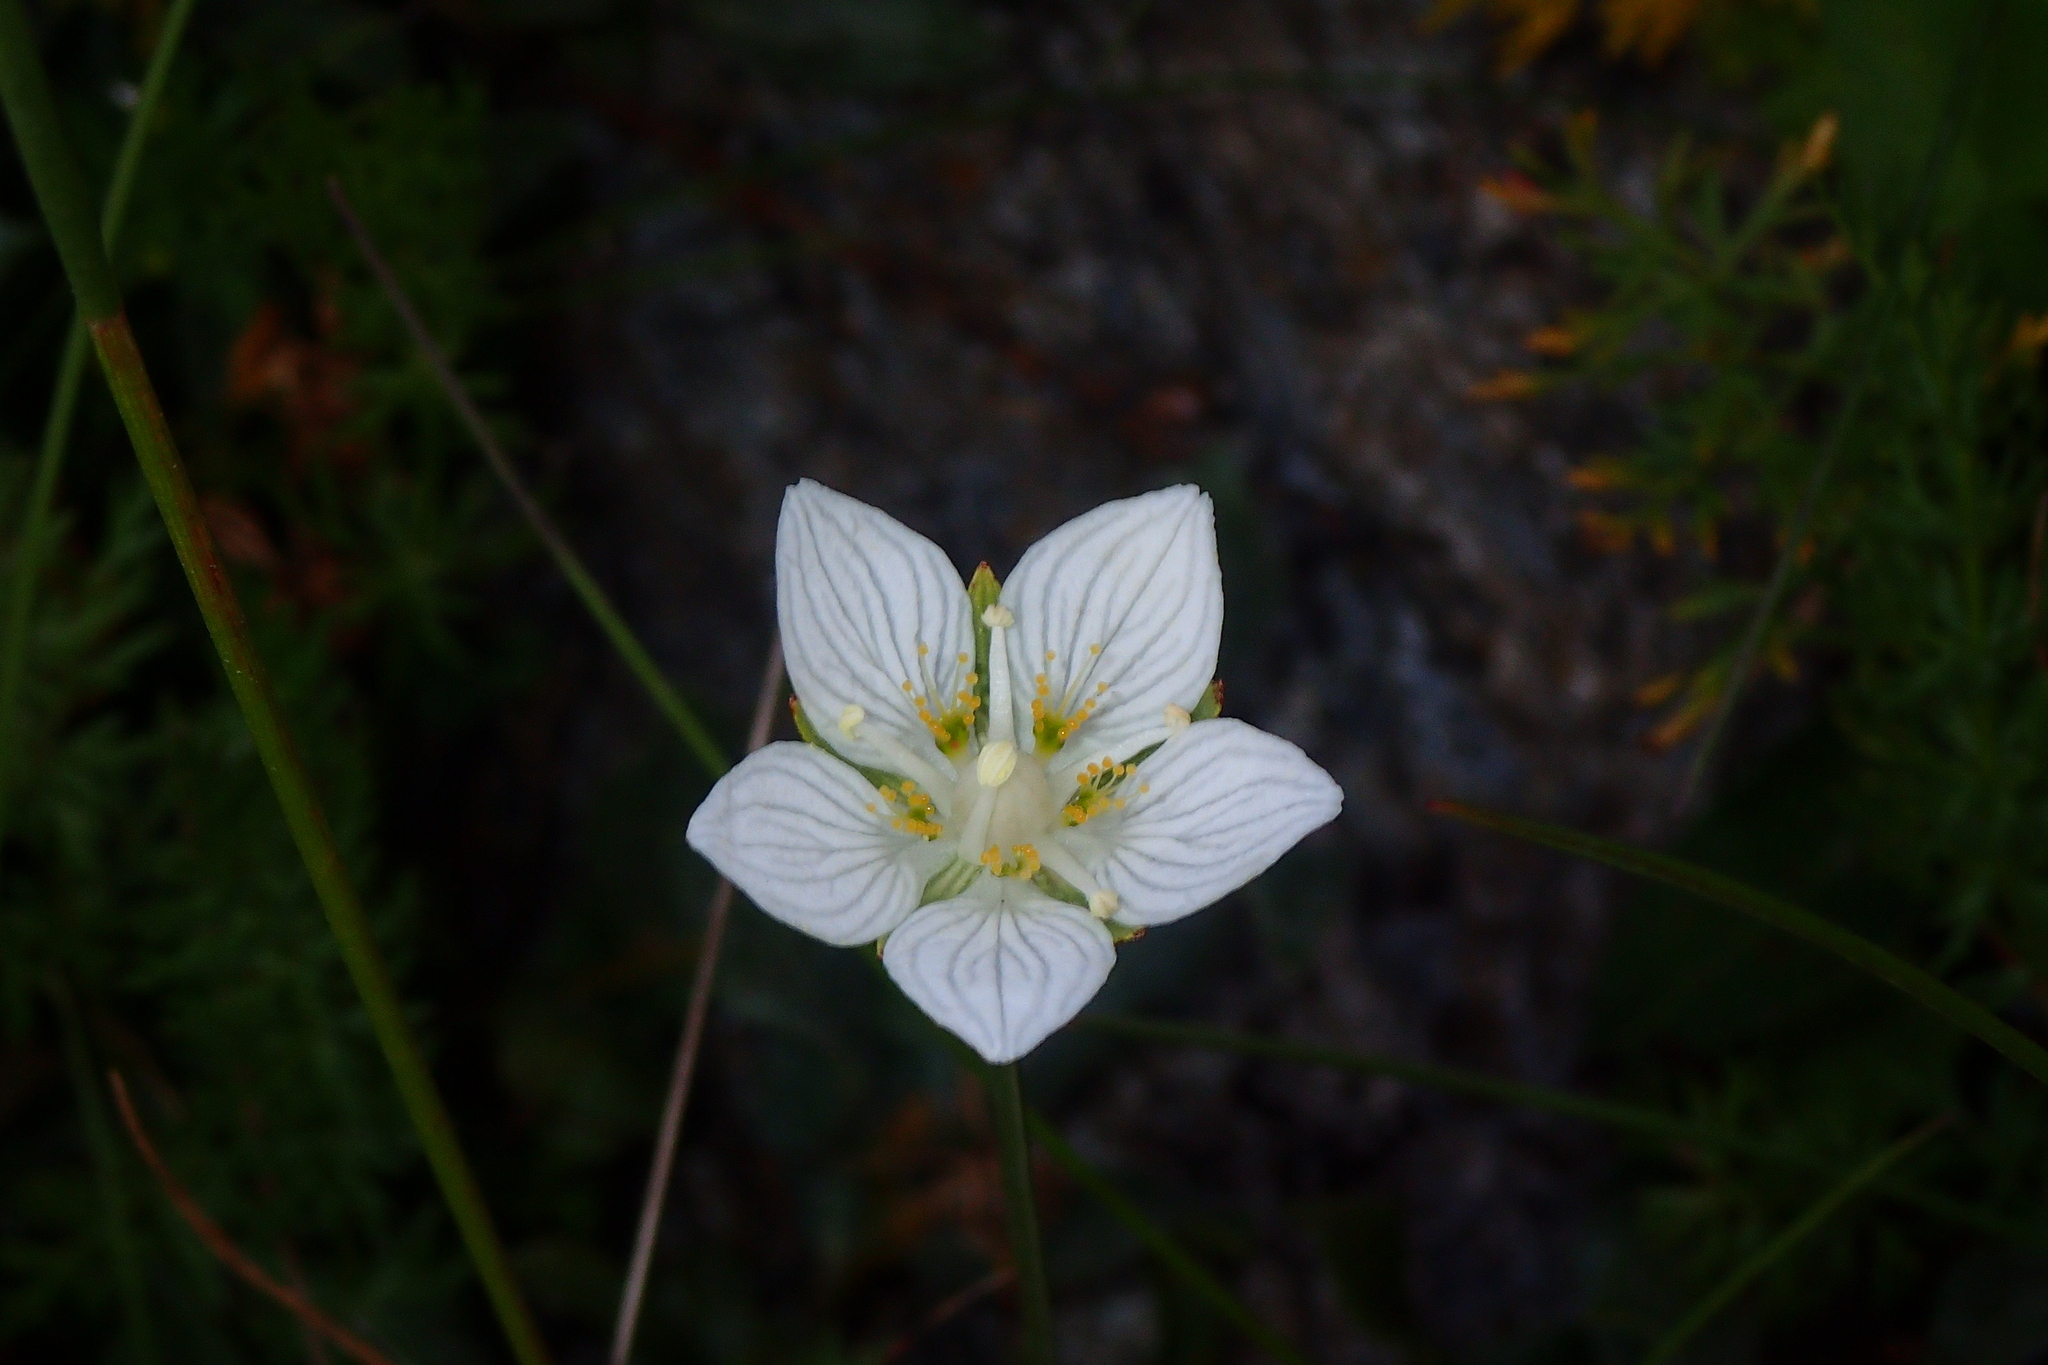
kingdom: Plantae
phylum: Tracheophyta
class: Magnoliopsida
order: Celastrales
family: Parnassiaceae
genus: Parnassia
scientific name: Parnassia palustris
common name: Grass-of-parnassus
